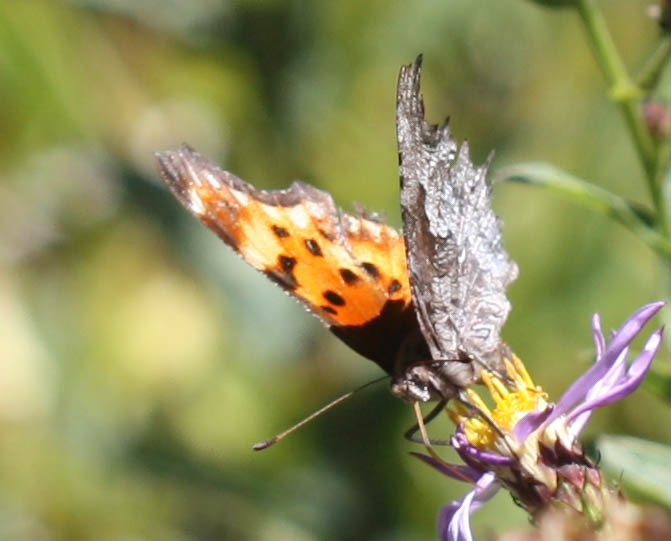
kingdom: Animalia
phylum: Arthropoda
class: Insecta
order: Lepidoptera
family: Nymphalidae
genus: Polygonia
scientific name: Polygonia gracilis
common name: Hoary comma
